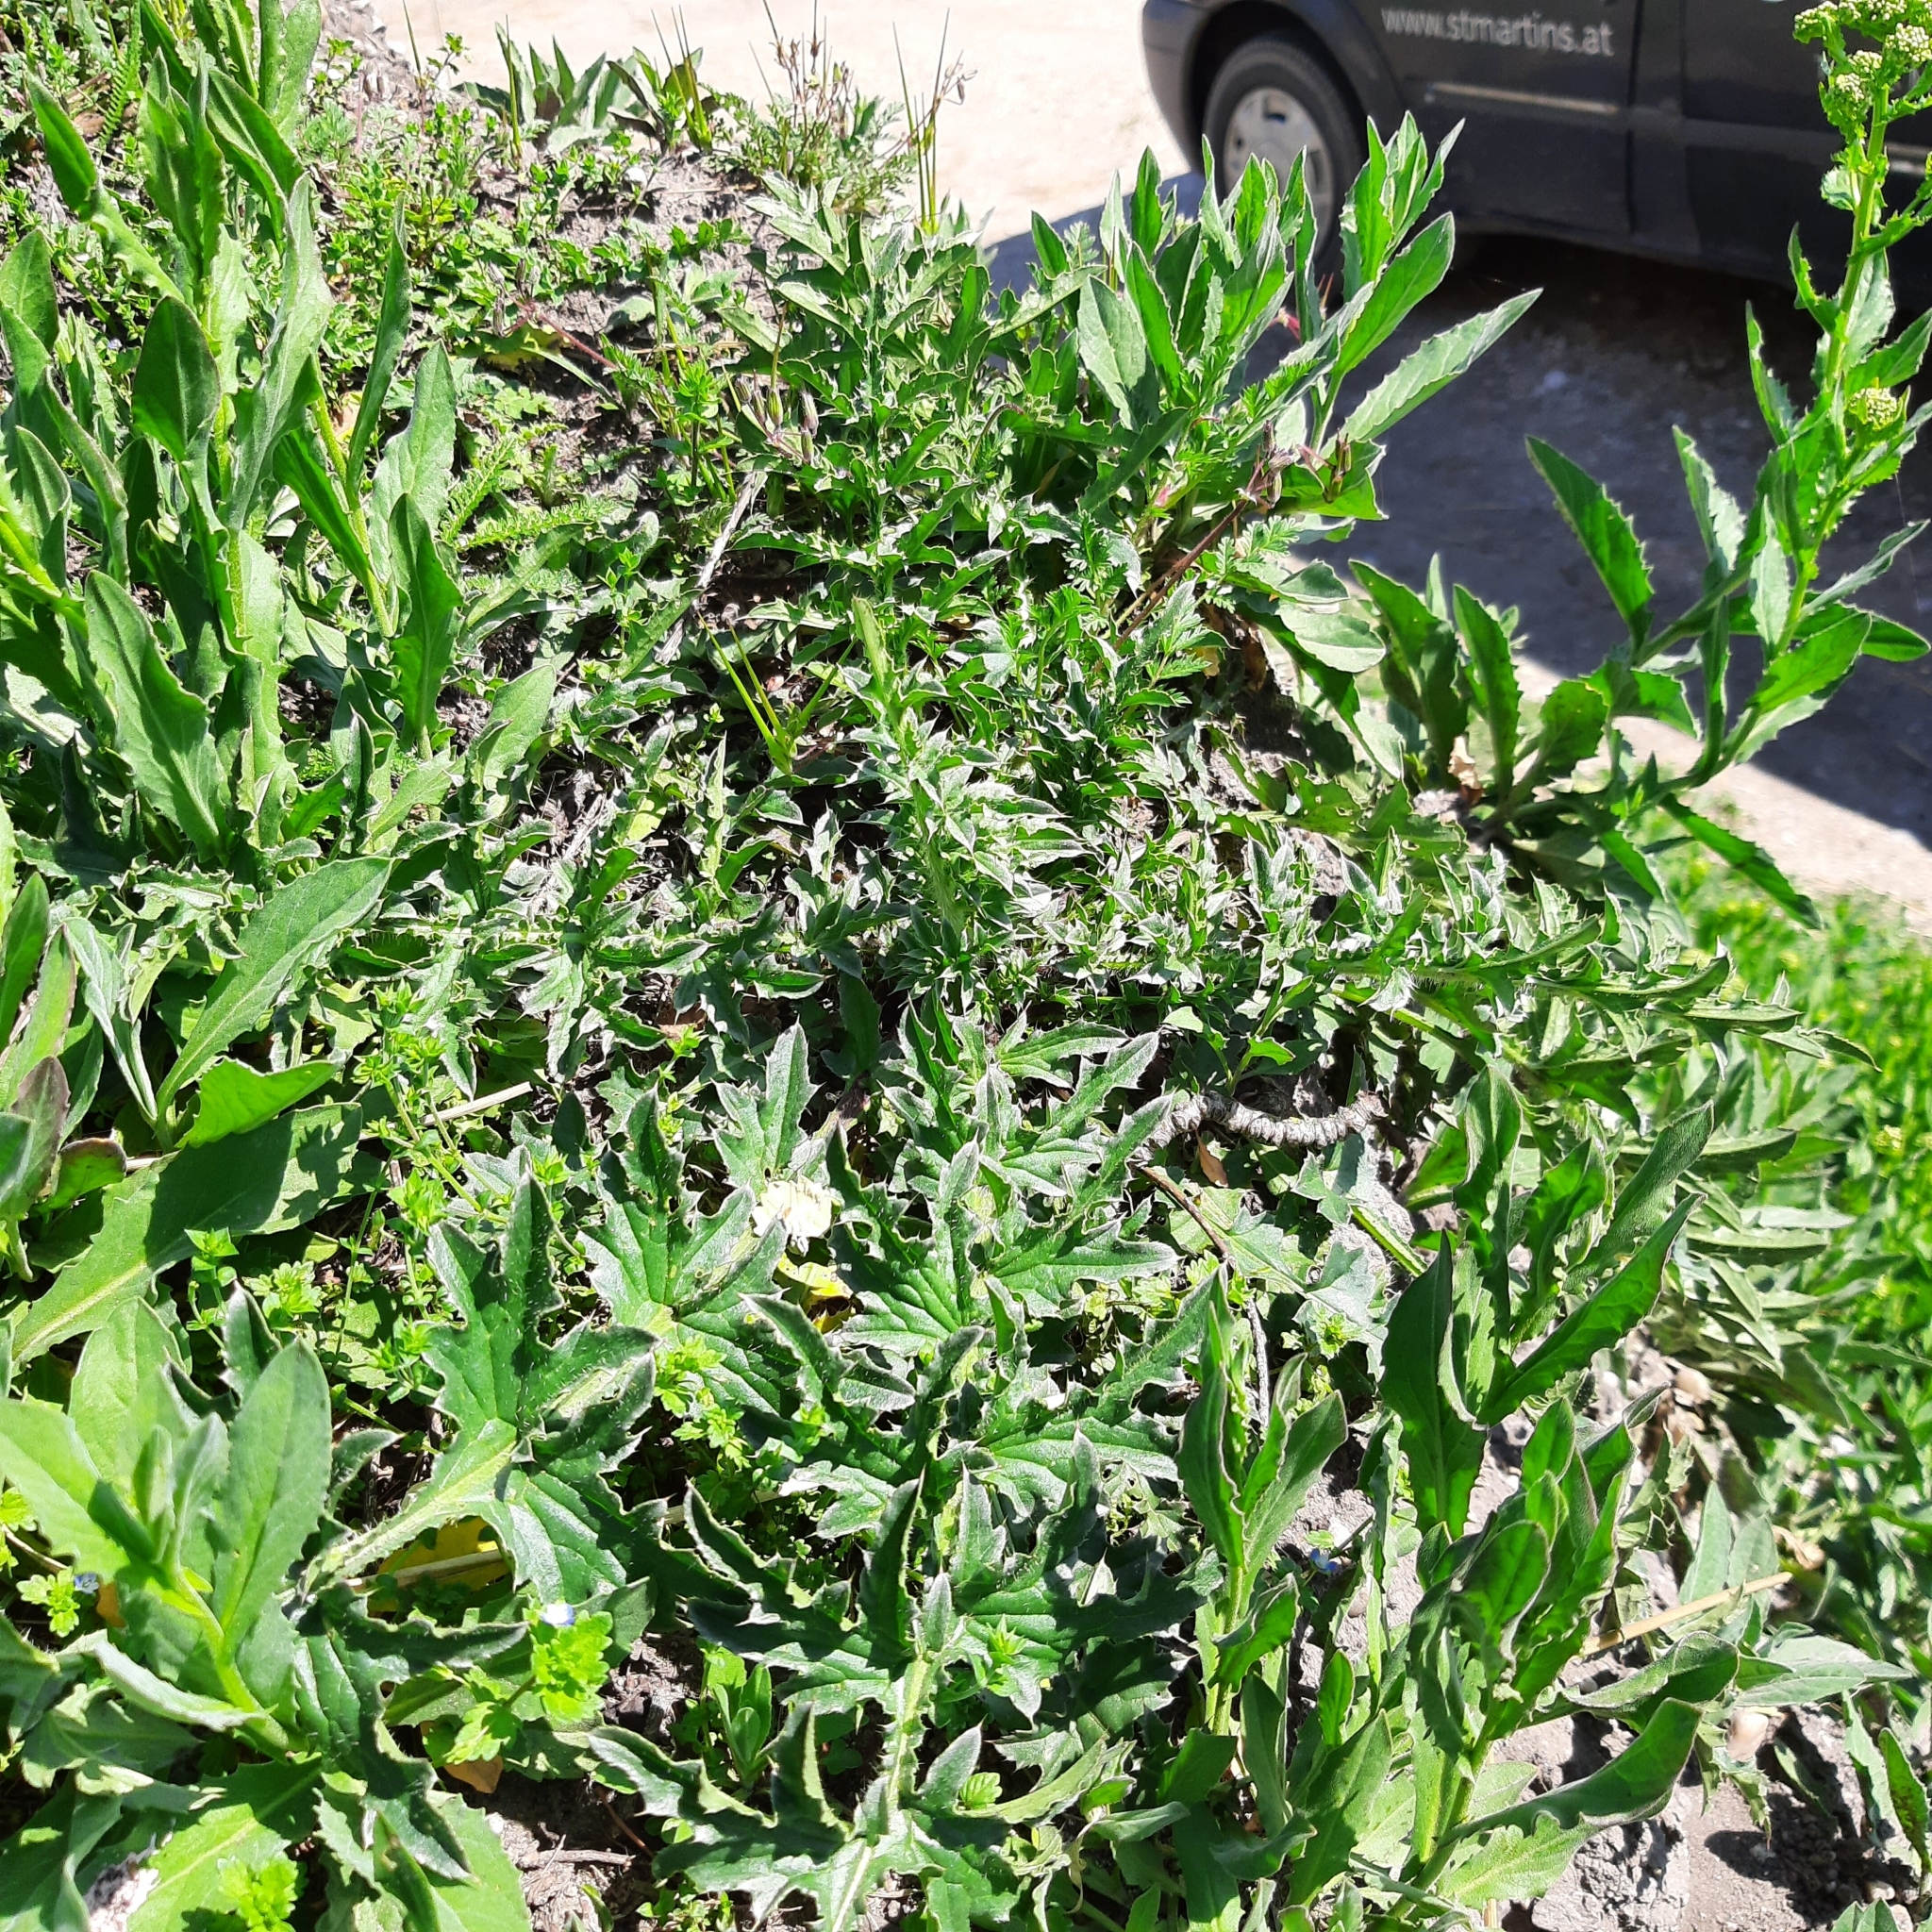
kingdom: Plantae
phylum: Tracheophyta
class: Magnoliopsida
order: Asterales
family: Asteraceae
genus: Carduus
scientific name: Carduus acanthoides
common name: Plumeless thistle
